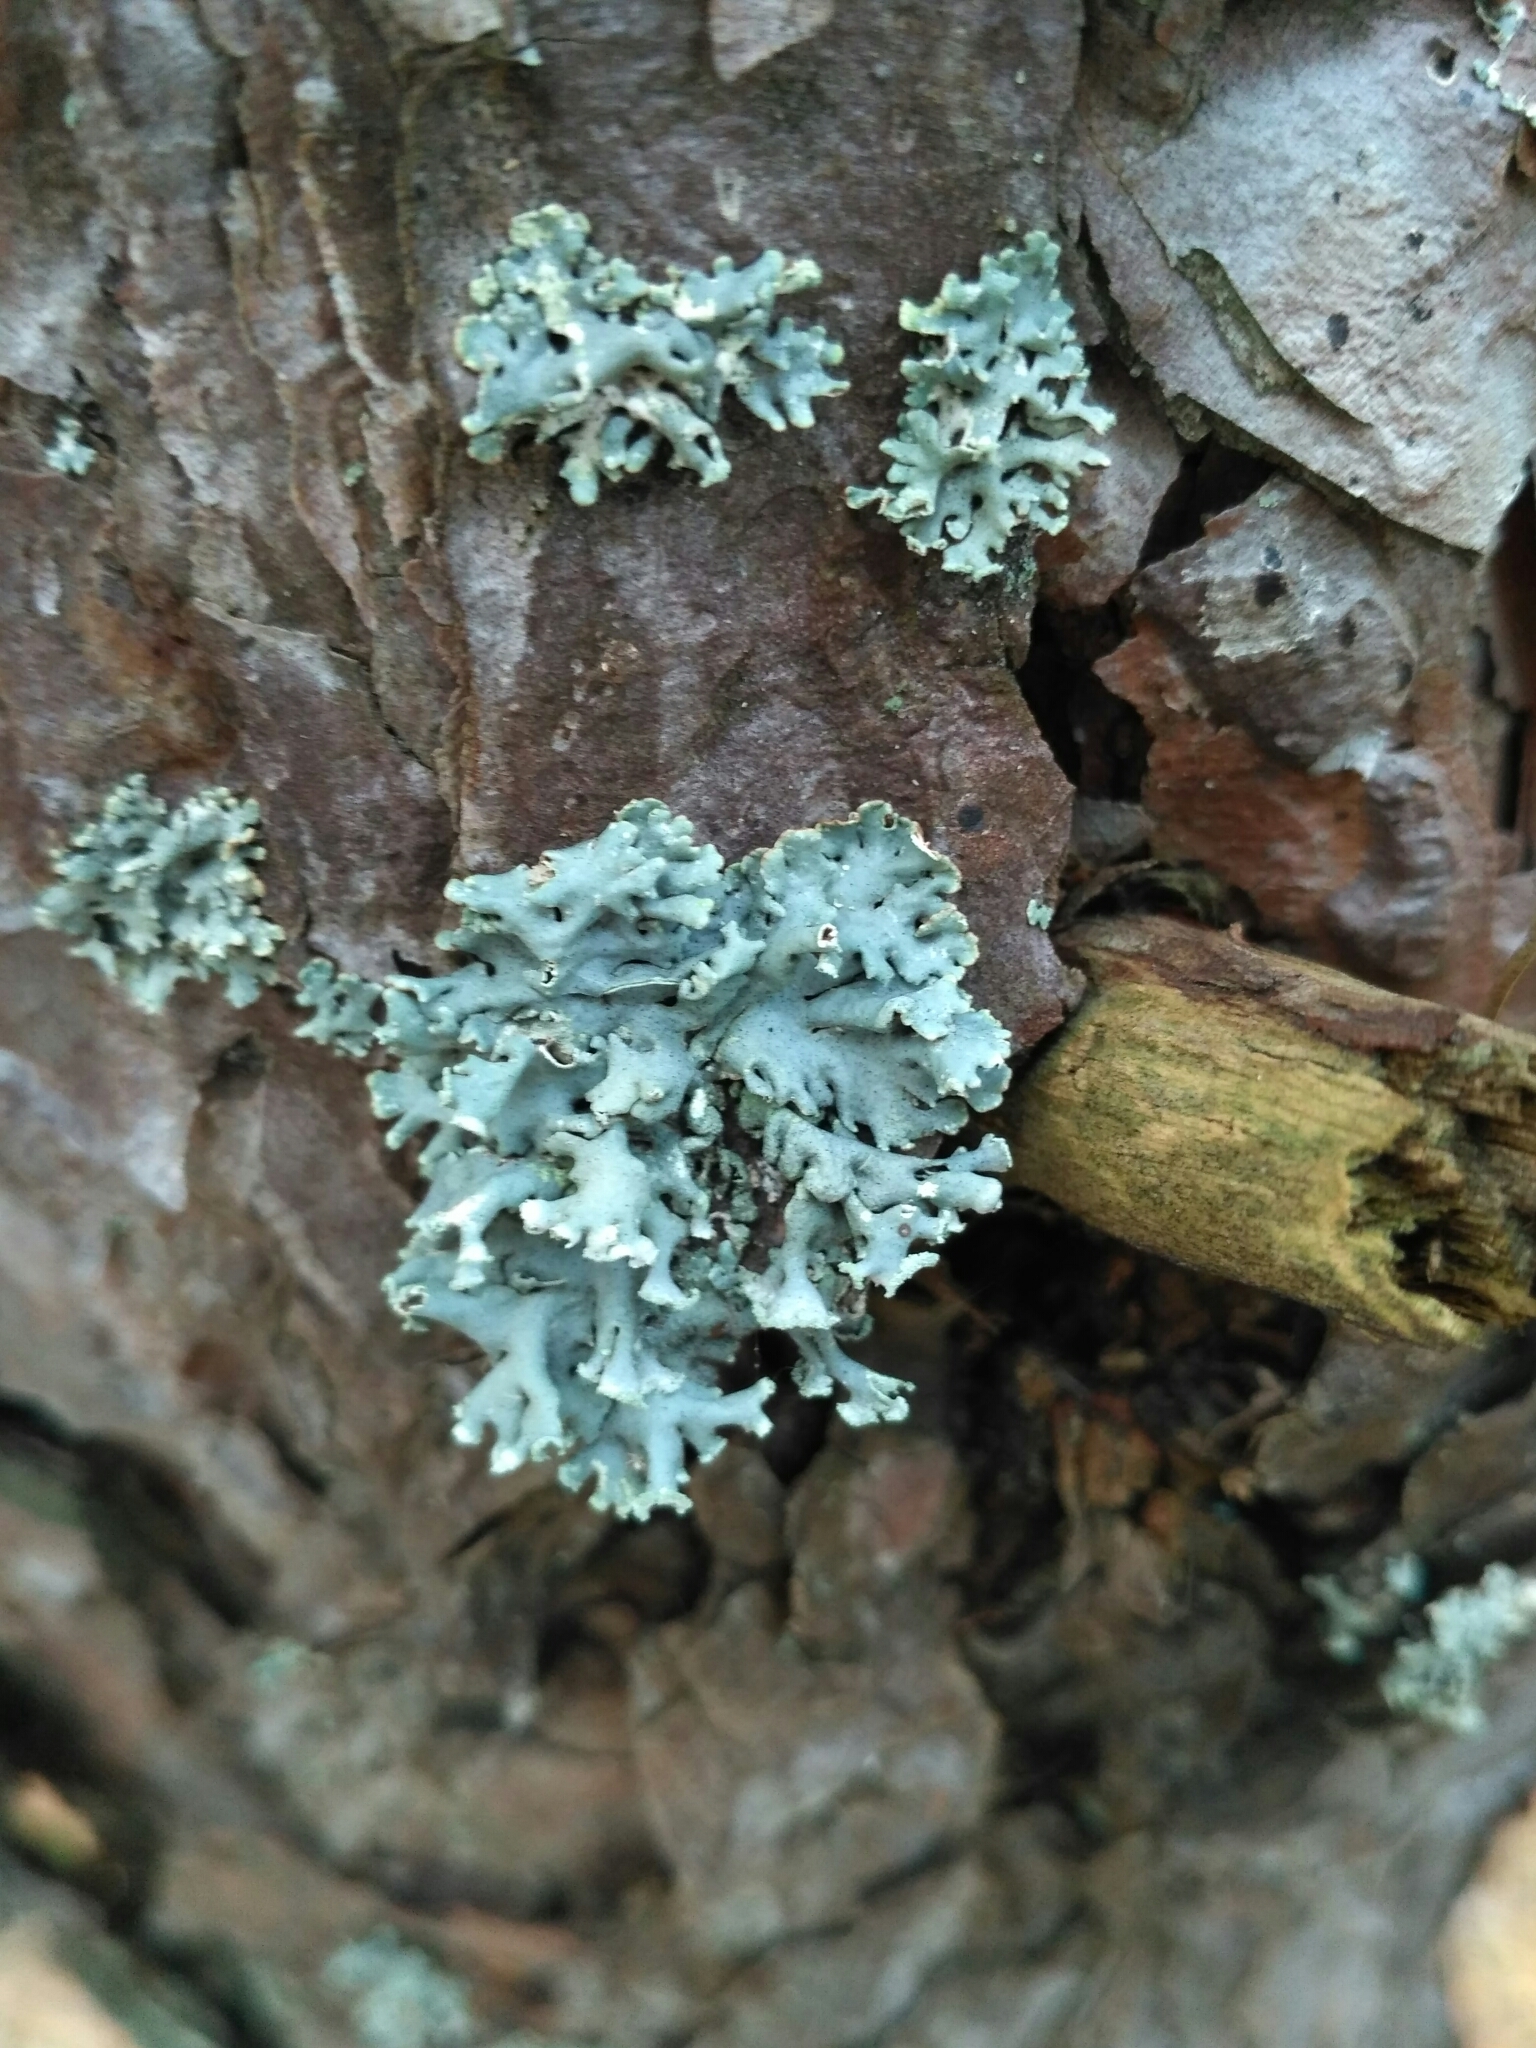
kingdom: Fungi
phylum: Ascomycota
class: Lecanoromycetes
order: Lecanorales
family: Parmeliaceae
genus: Hypogymnia
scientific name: Hypogymnia physodes
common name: Dark crottle
